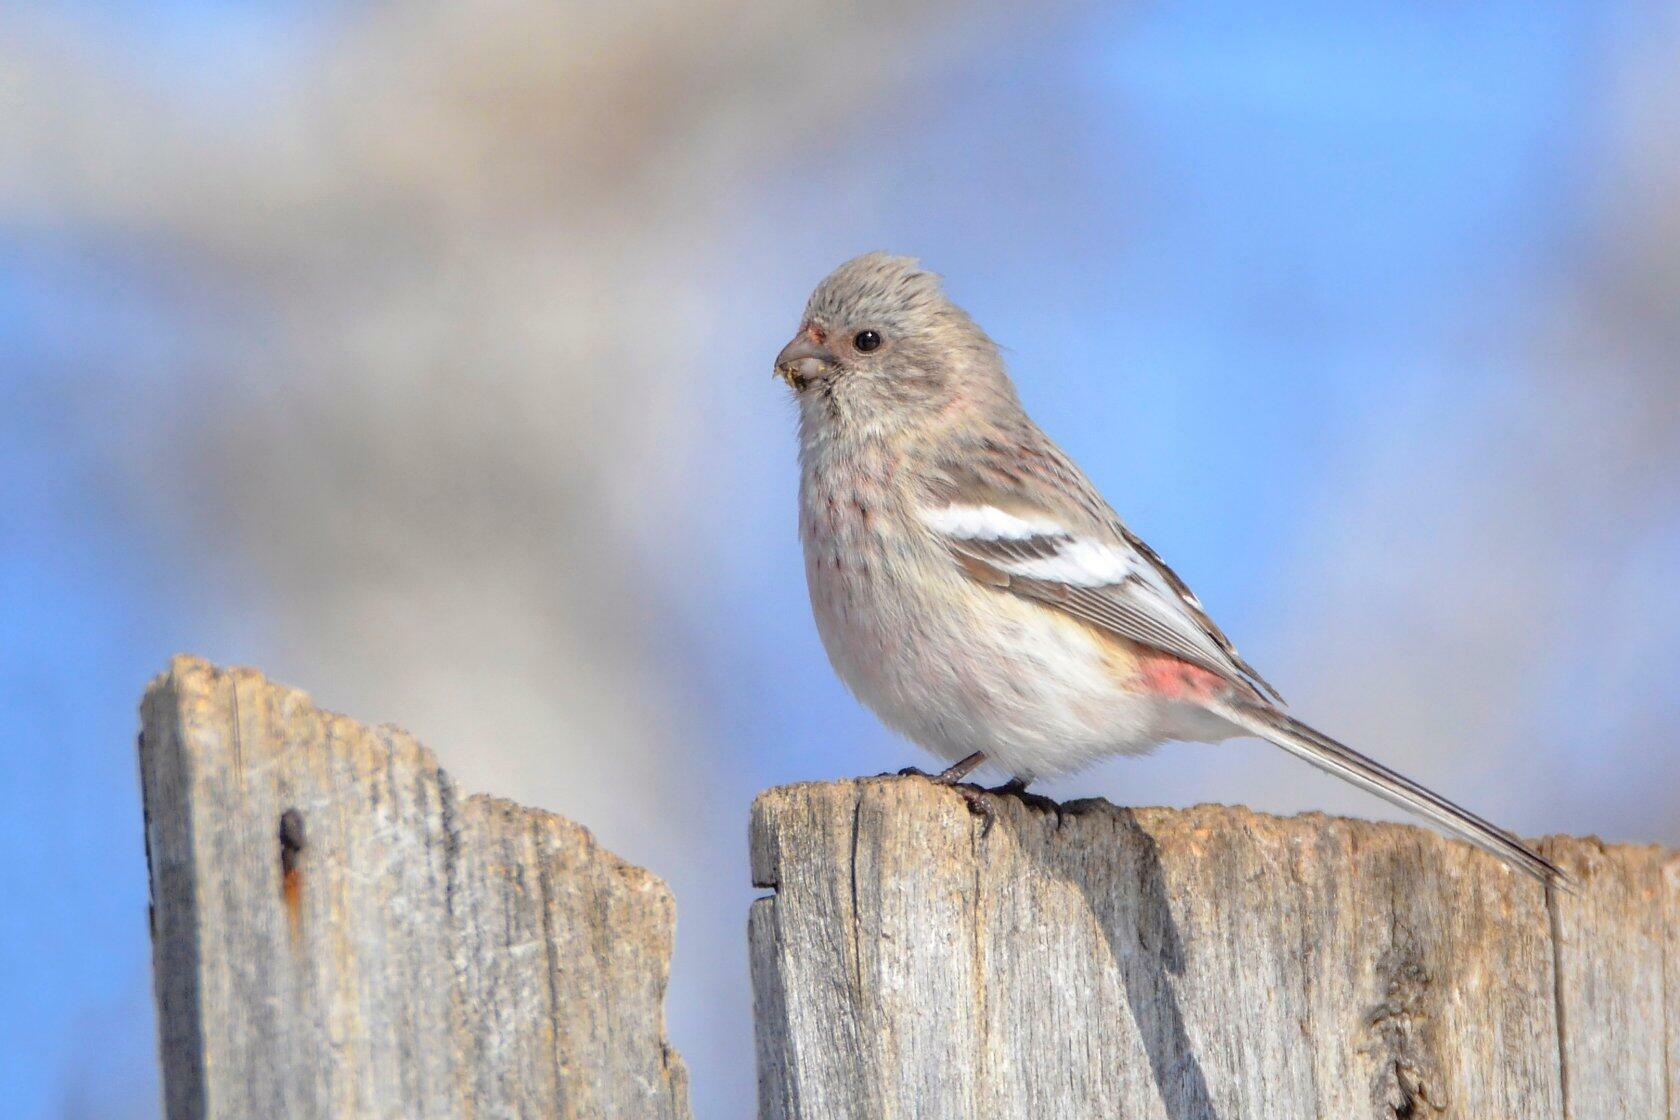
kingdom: Animalia
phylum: Chordata
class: Aves
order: Passeriformes
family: Fringillidae
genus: Carpodacus
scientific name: Carpodacus sibiricus
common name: Long-tailed rosefinch
